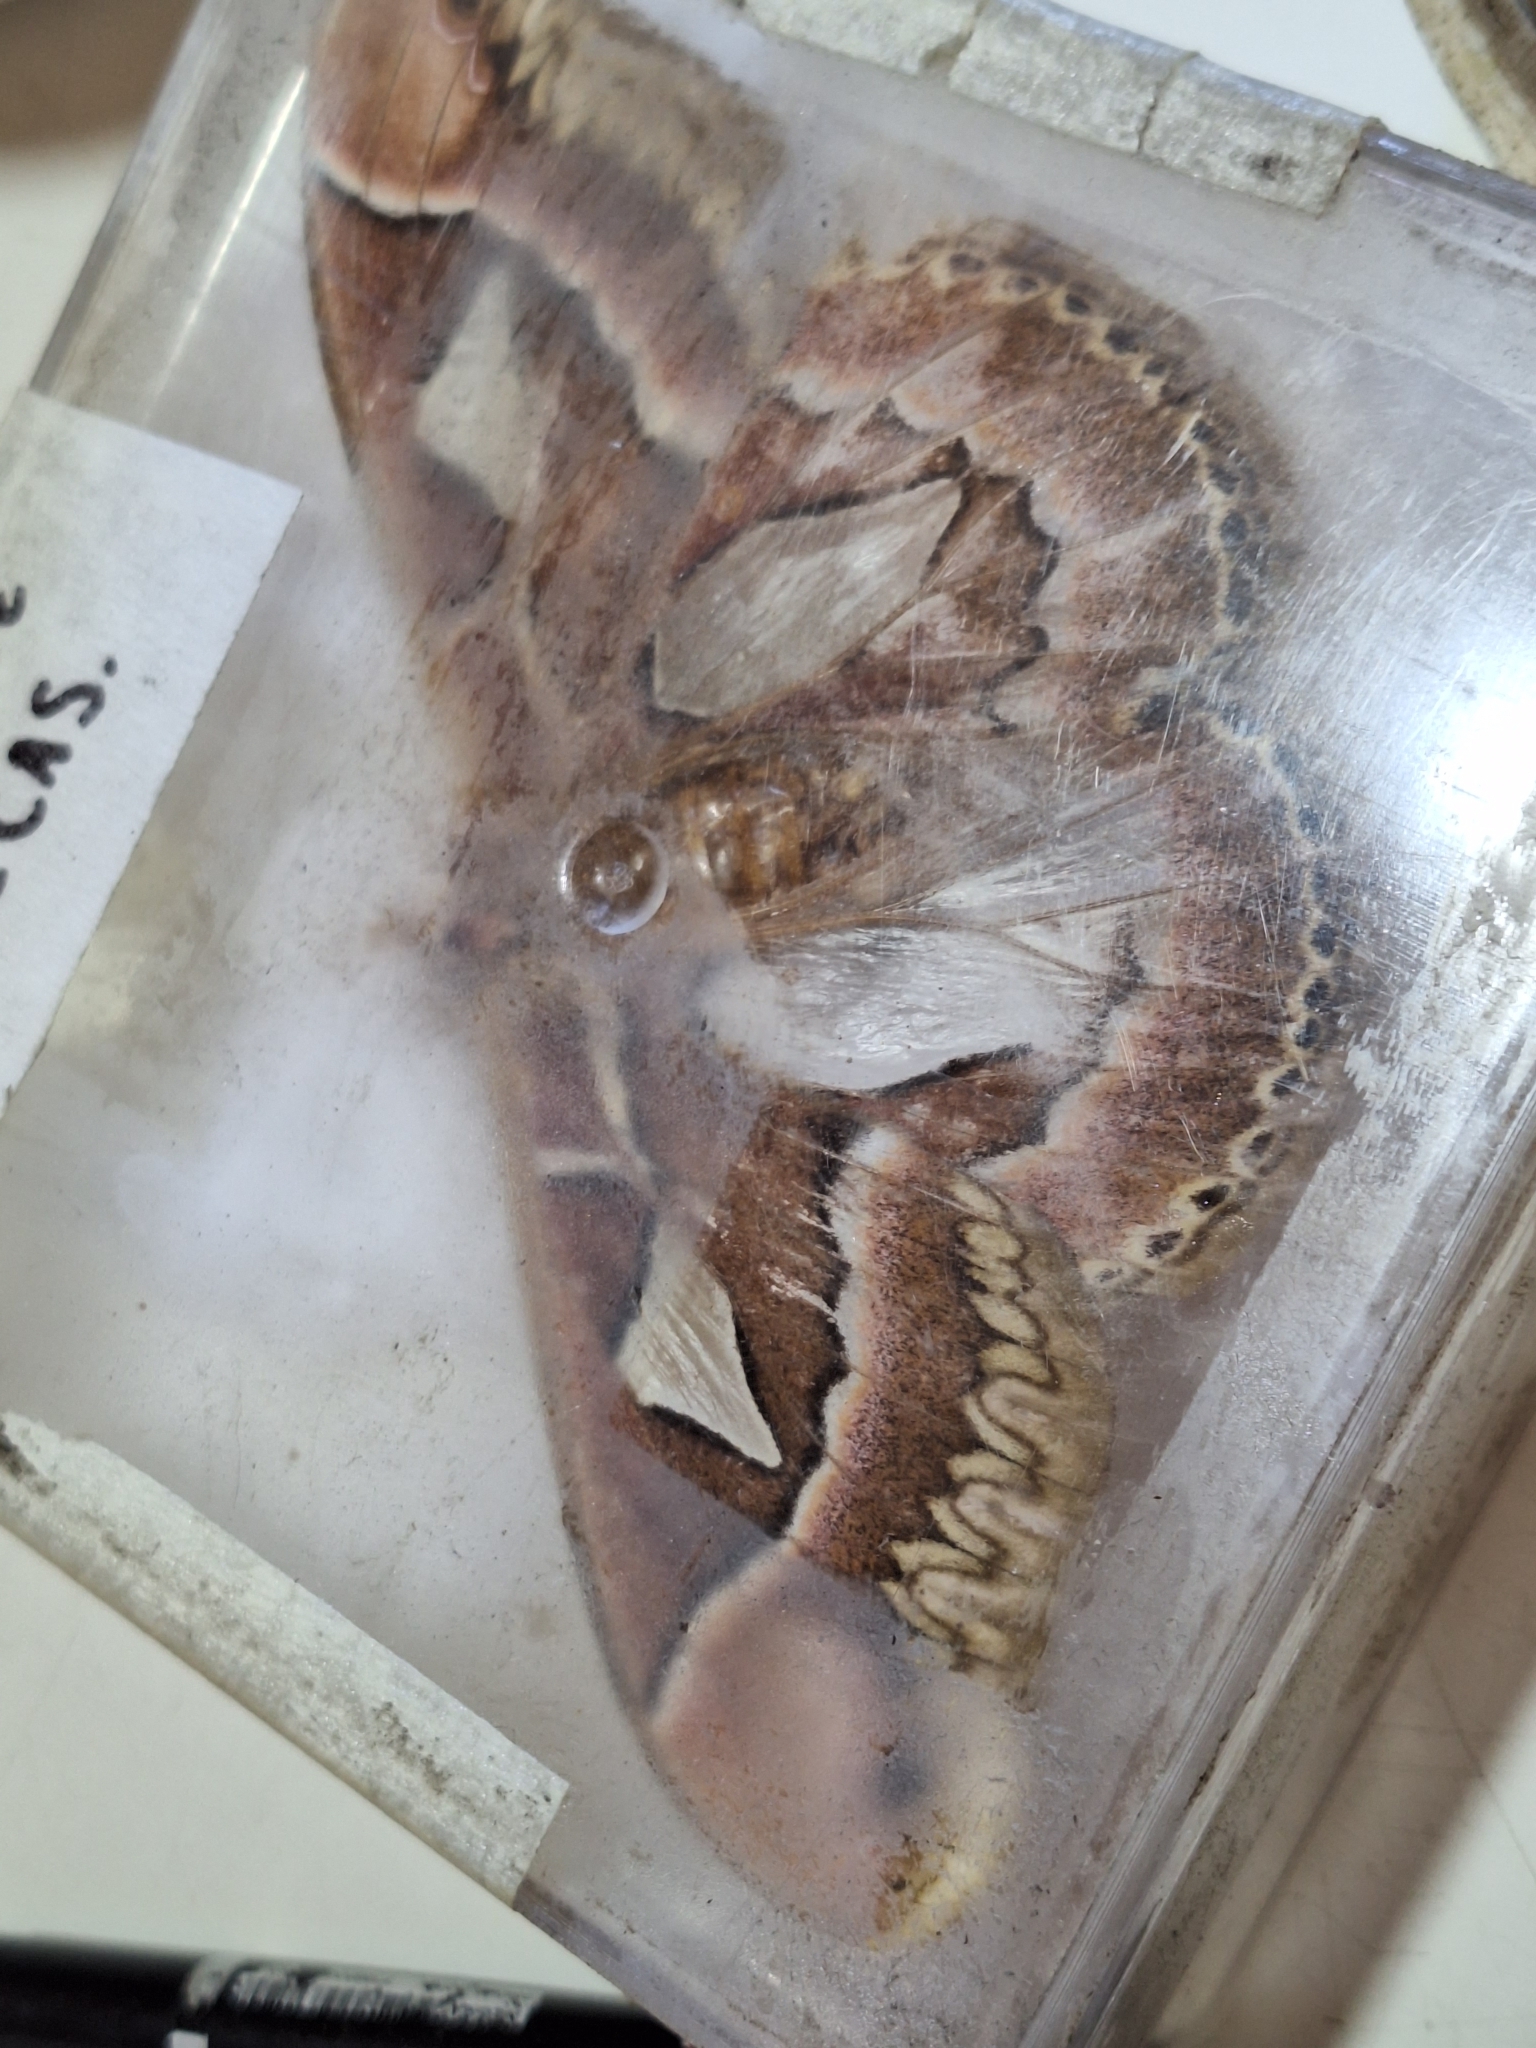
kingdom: Animalia
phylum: Arthropoda
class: Insecta
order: Lepidoptera
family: Saturniidae
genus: Rothschildia
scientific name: Rothschildia jacobaeae
